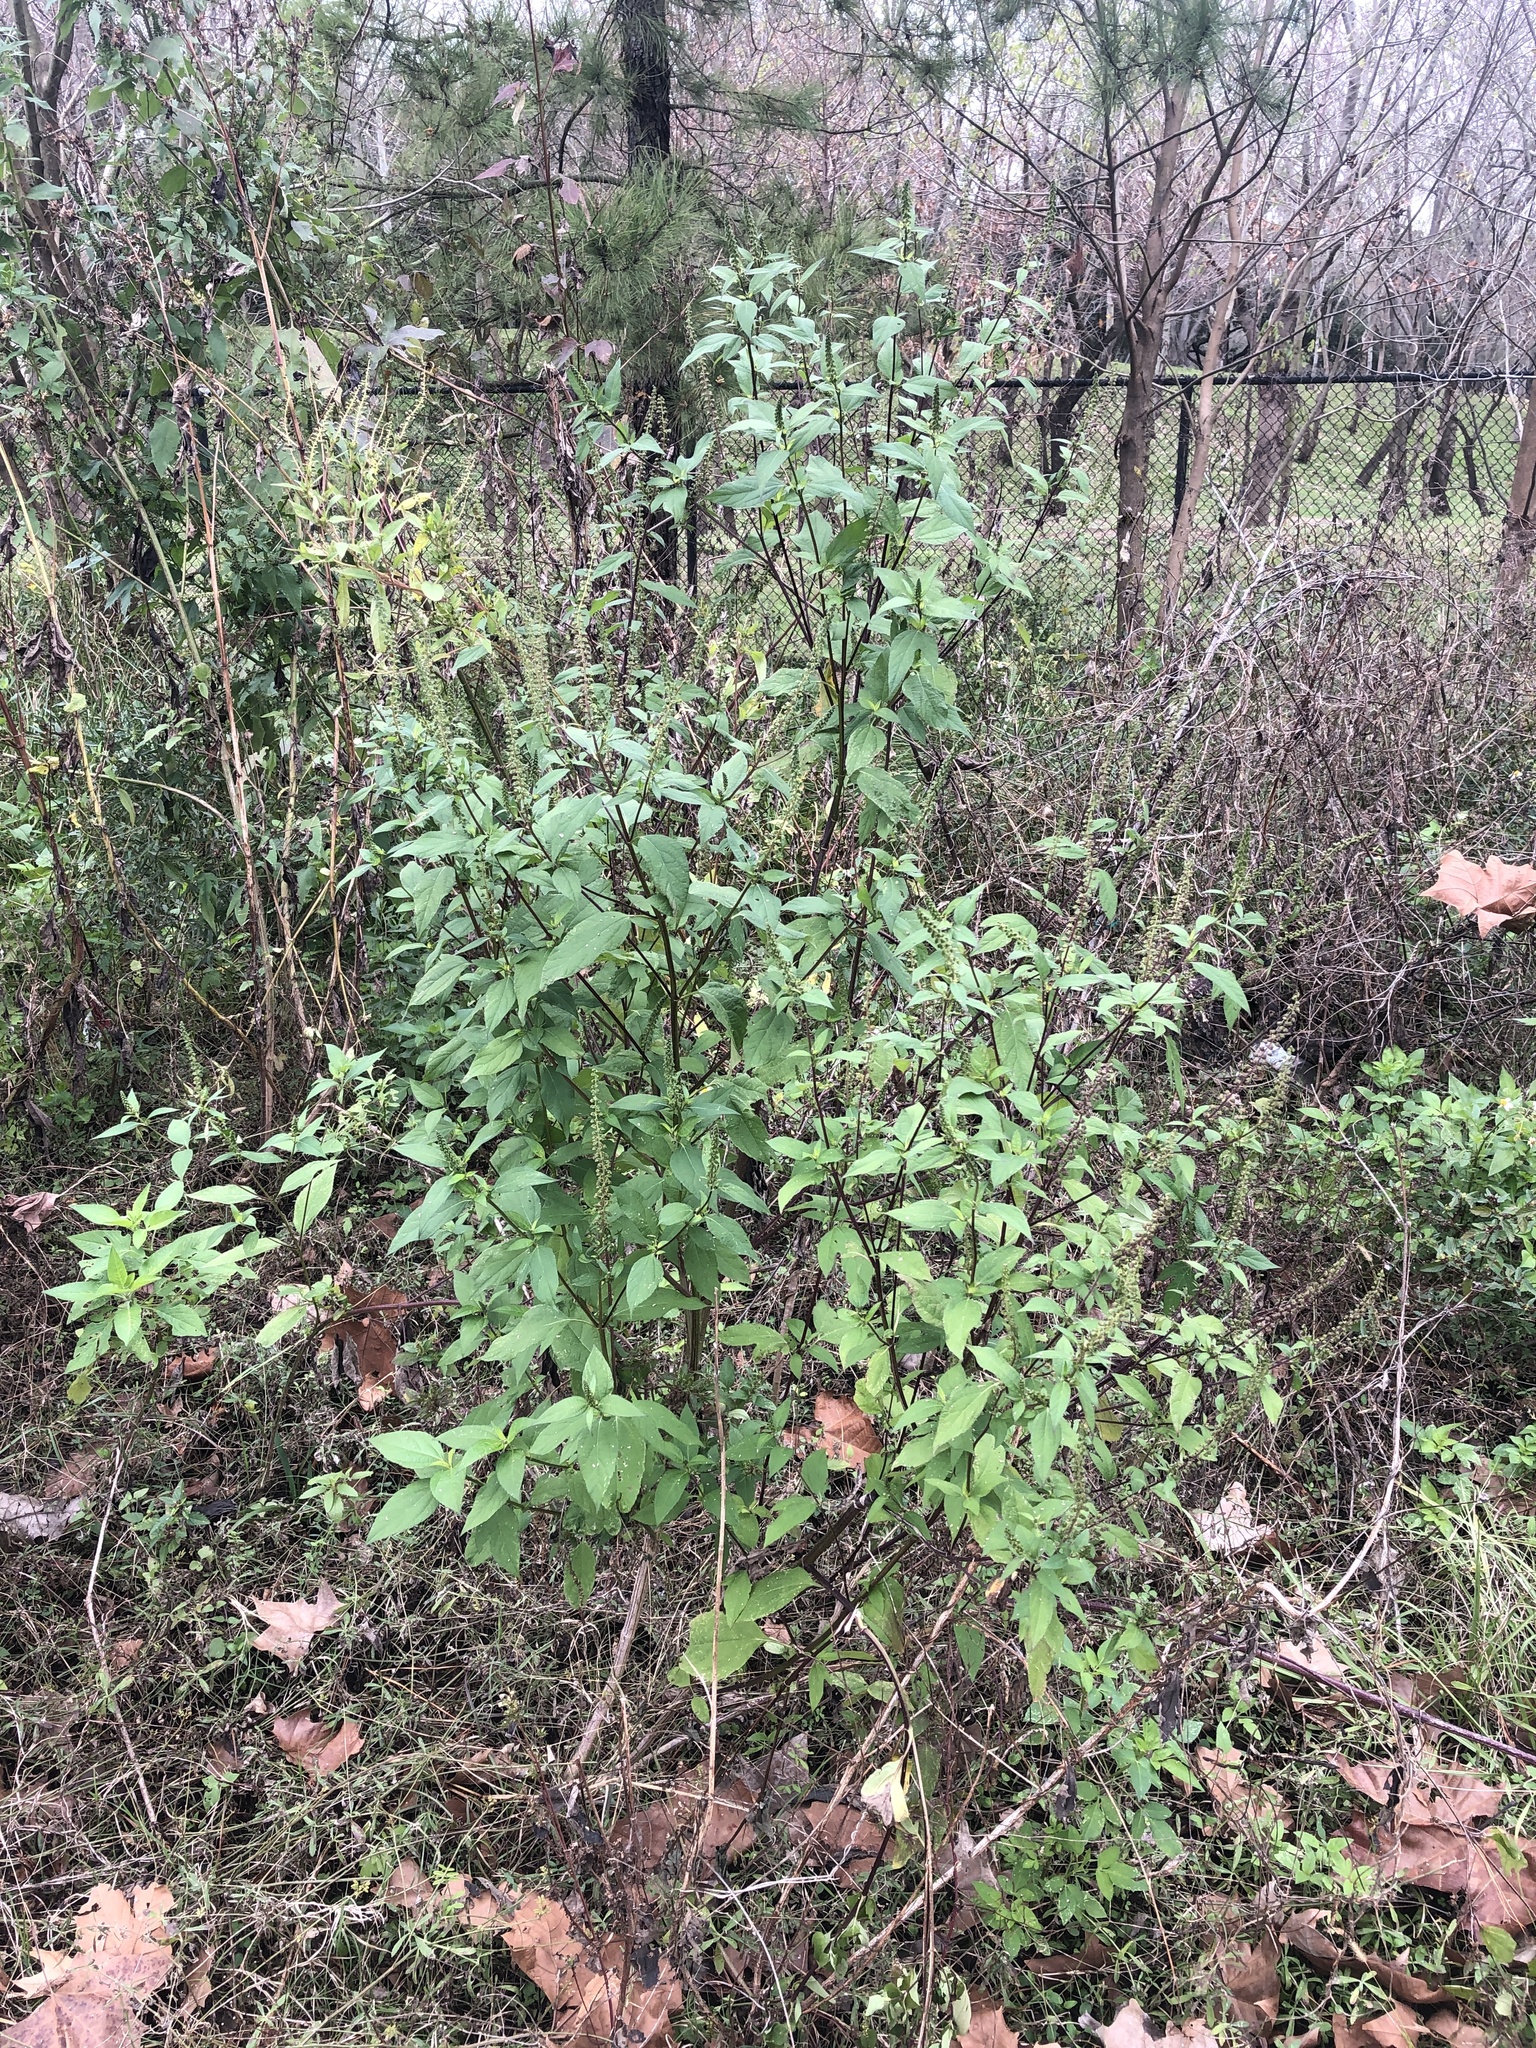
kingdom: Plantae
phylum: Tracheophyta
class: Magnoliopsida
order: Asterales
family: Asteraceae
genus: Ambrosia
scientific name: Ambrosia trifida
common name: Giant ragweed
